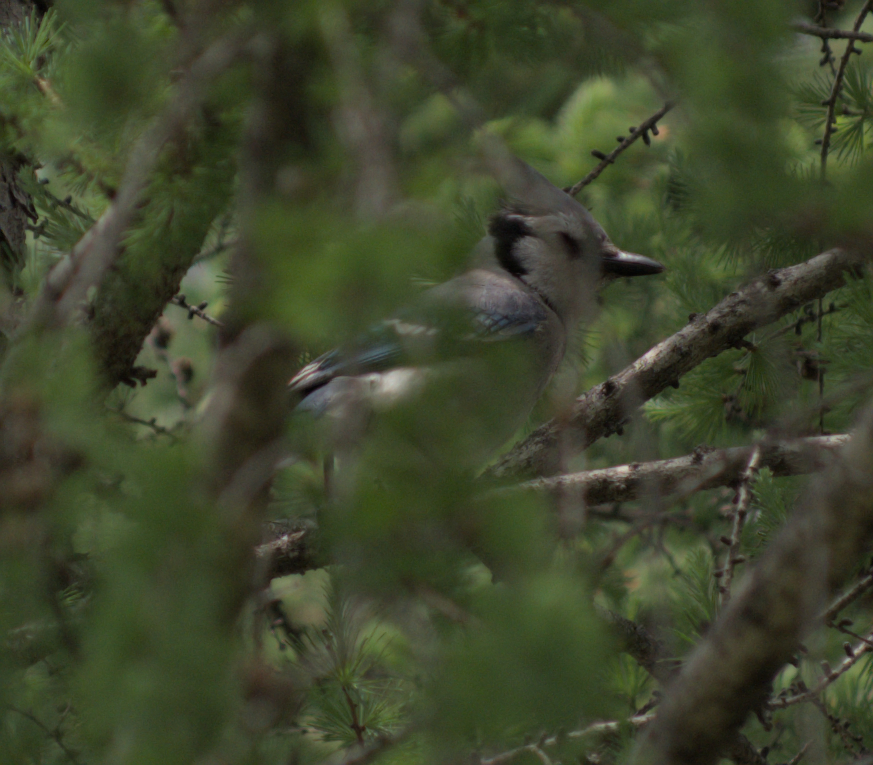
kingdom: Animalia
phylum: Chordata
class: Aves
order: Passeriformes
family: Corvidae
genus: Cyanocitta
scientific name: Cyanocitta cristata
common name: Blue jay
